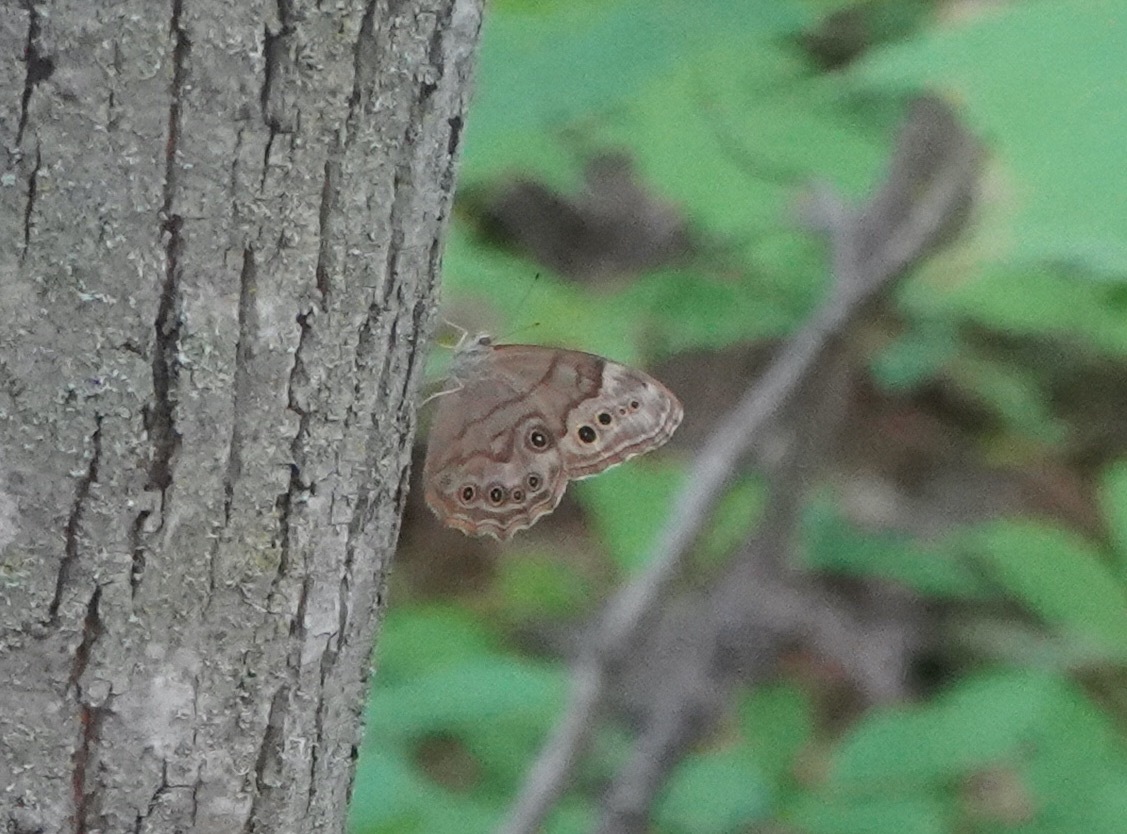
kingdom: Animalia
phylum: Arthropoda
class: Insecta
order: Lepidoptera
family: Nymphalidae
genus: Lethe
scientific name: Lethe anthedon
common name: Northern pearly-eye
